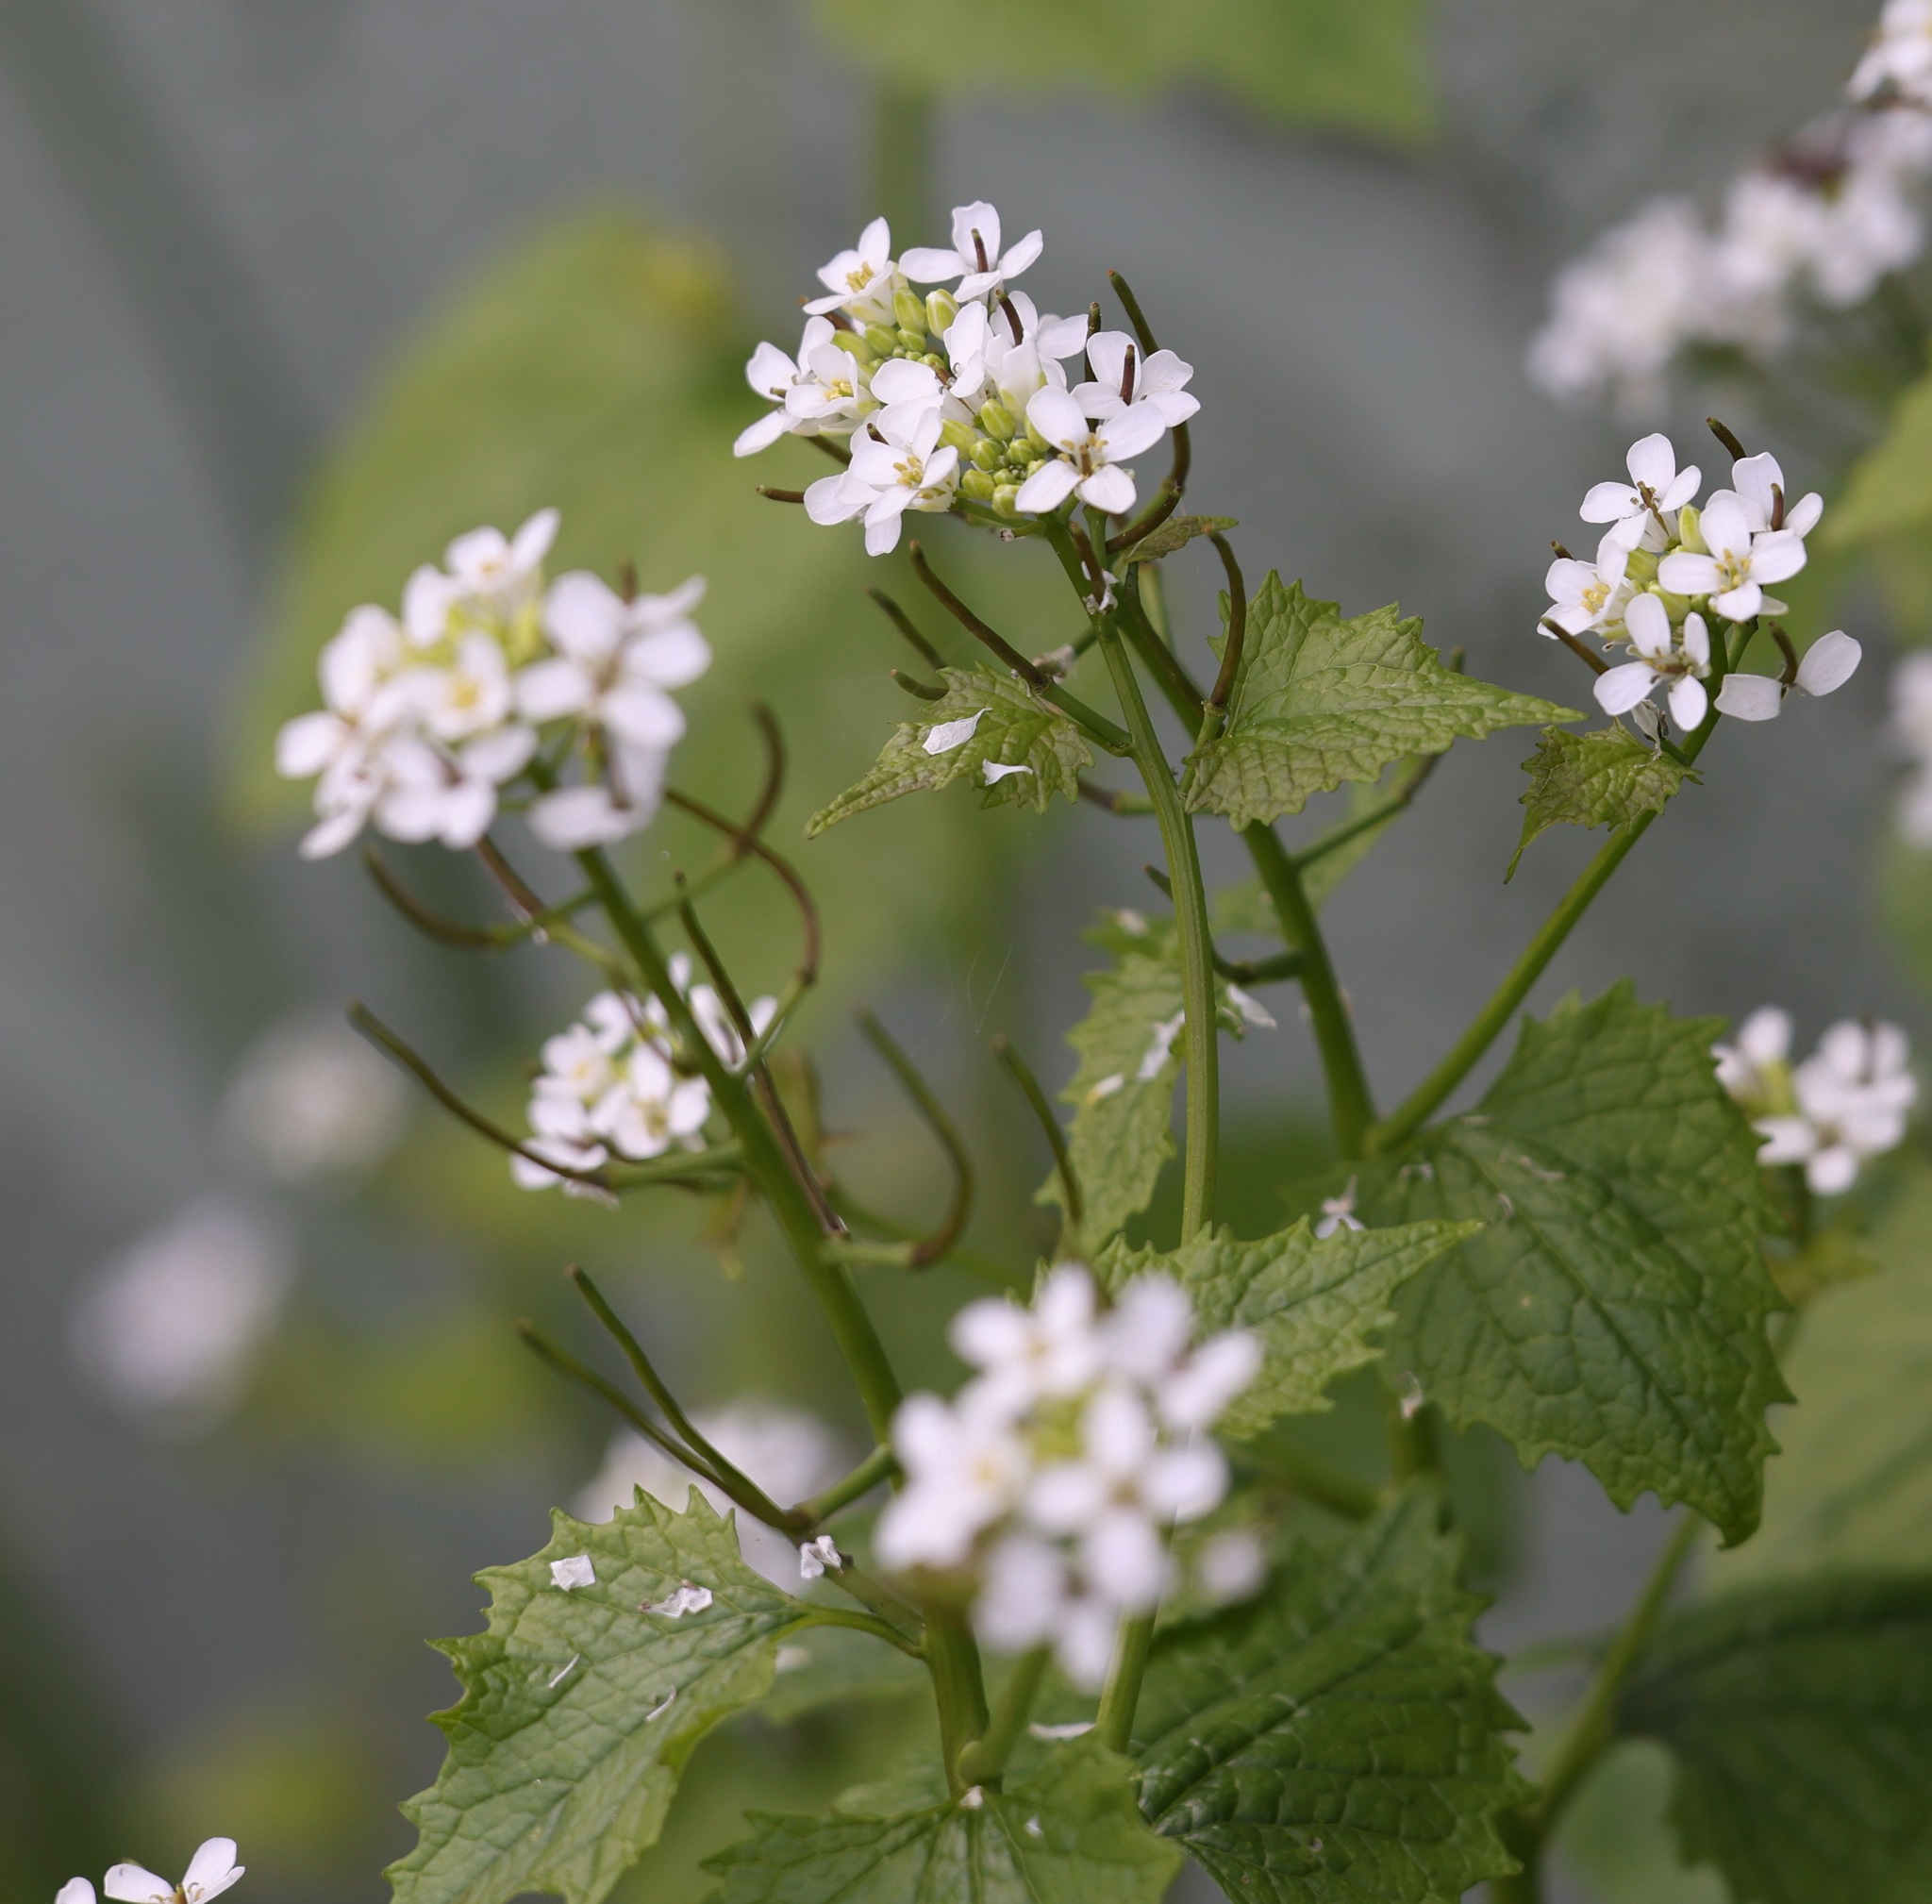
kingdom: Plantae
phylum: Tracheophyta
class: Magnoliopsida
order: Brassicales
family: Brassicaceae
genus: Alliaria
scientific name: Alliaria petiolata
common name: Garlic mustard
